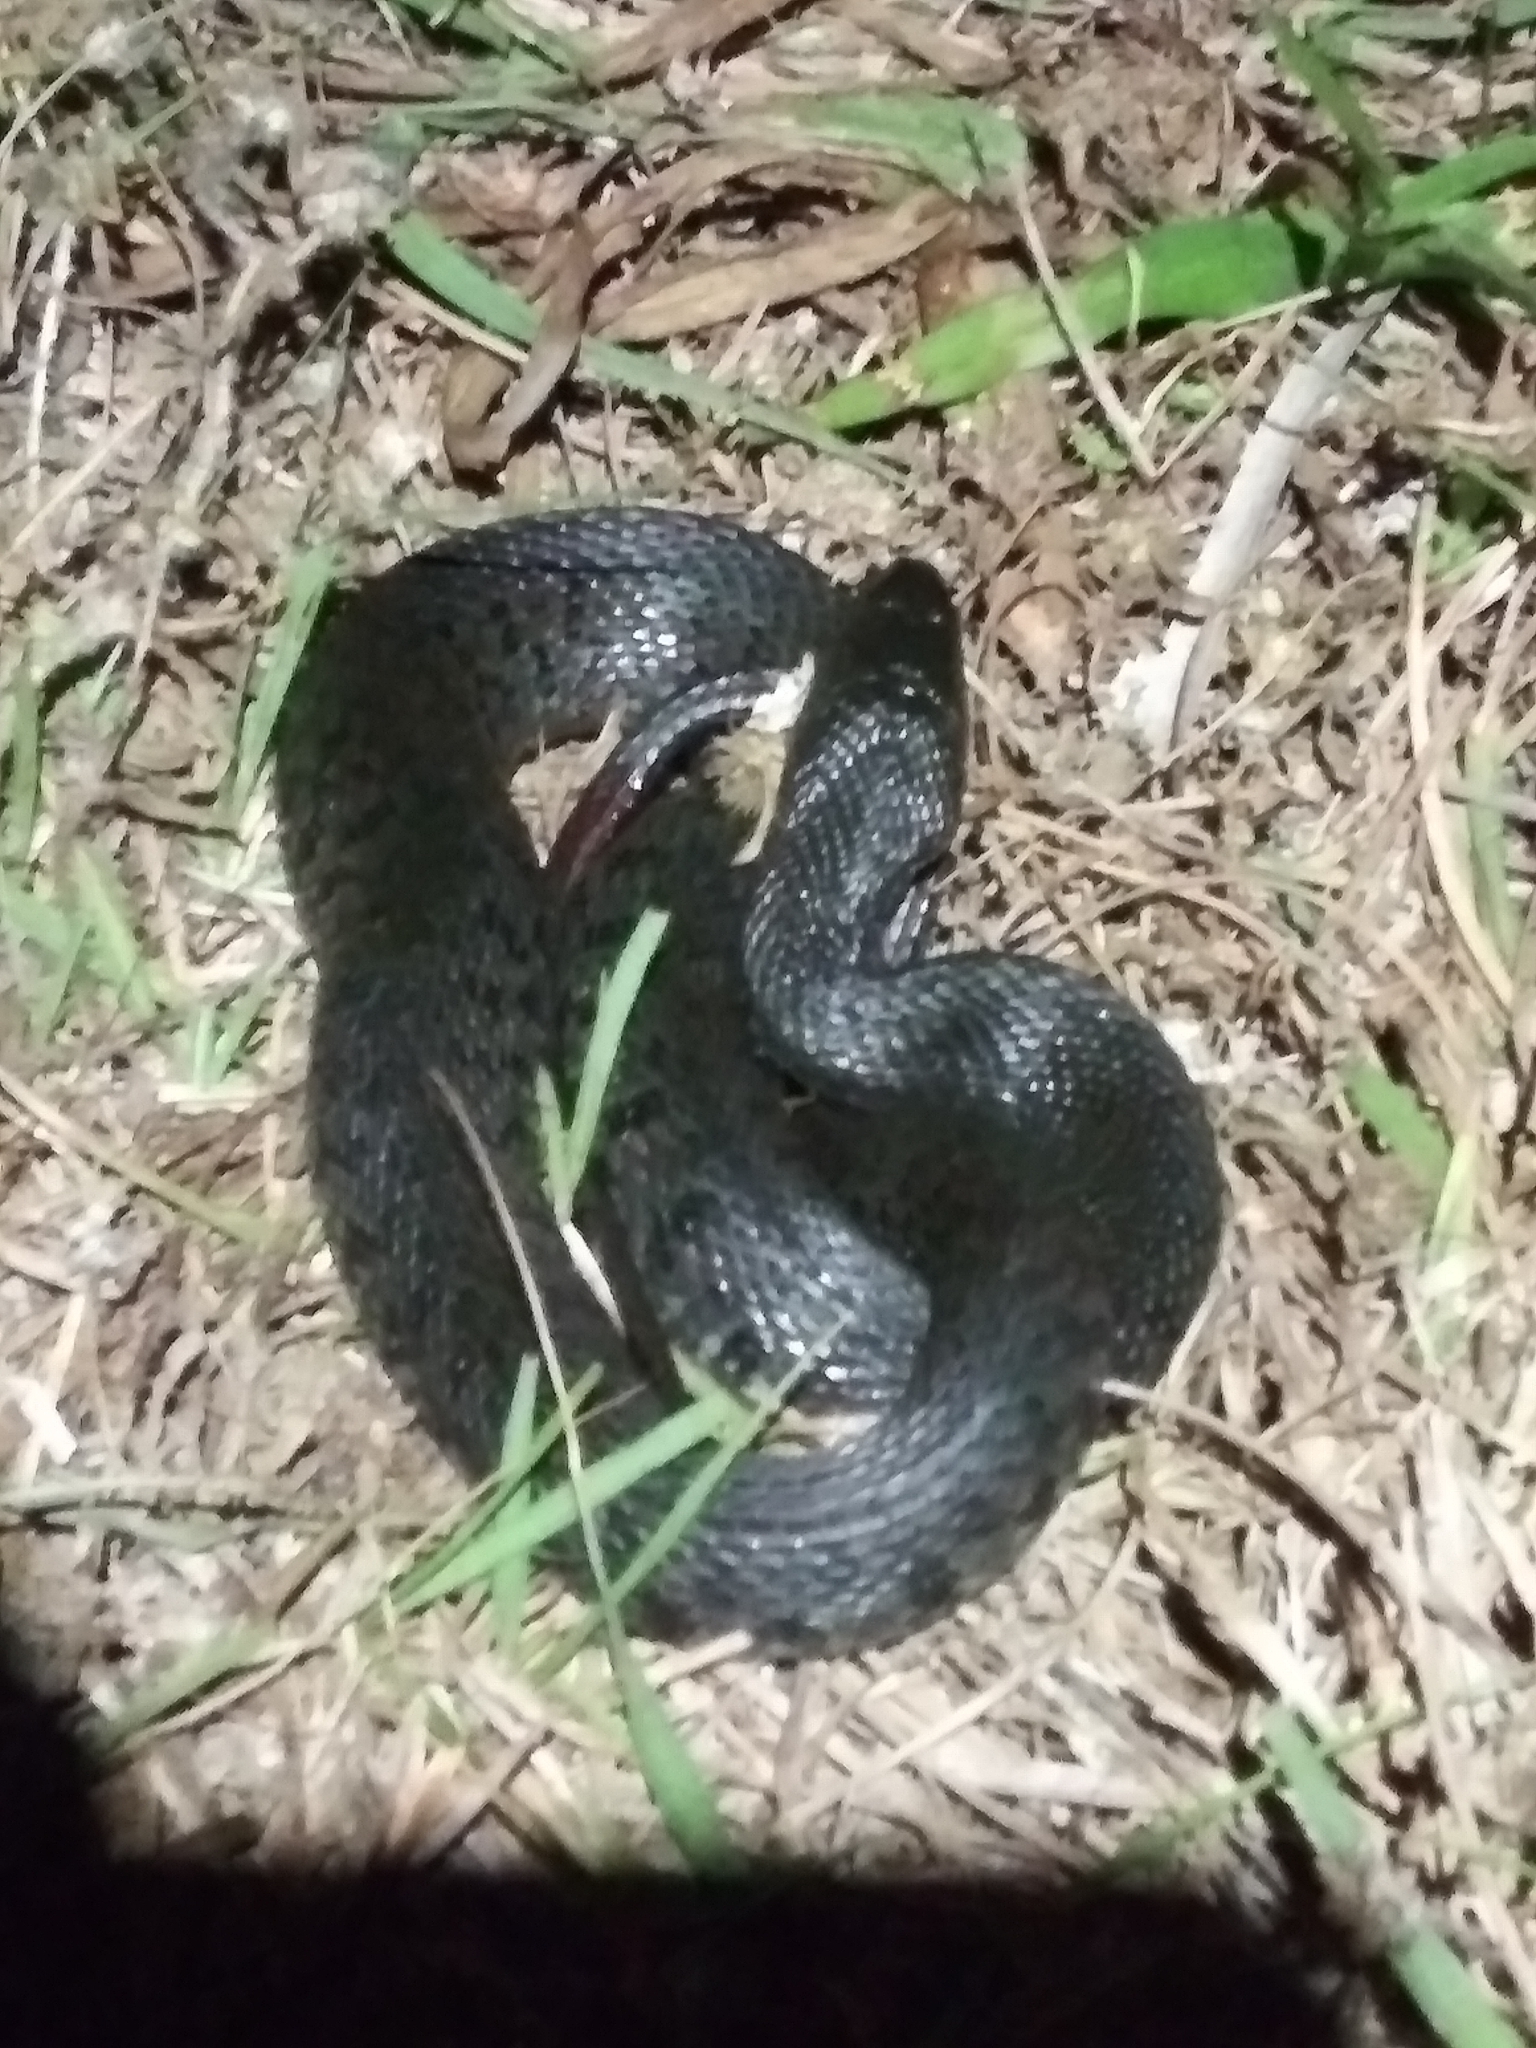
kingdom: Animalia
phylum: Chordata
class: Squamata
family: Colubridae
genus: Nerodia
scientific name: Nerodia floridana
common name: Florida green watersnake
